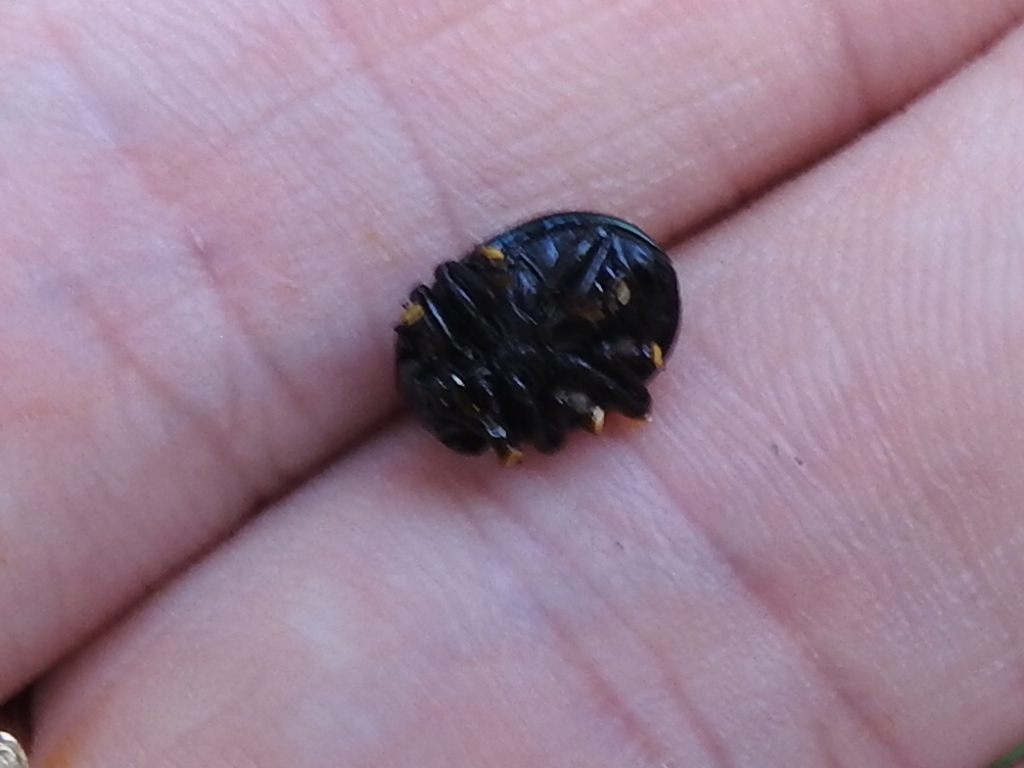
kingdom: Animalia
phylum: Arthropoda
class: Insecta
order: Coleoptera
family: Chrysomelidae
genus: Leptinotarsa
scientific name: Leptinotarsa haldemani
